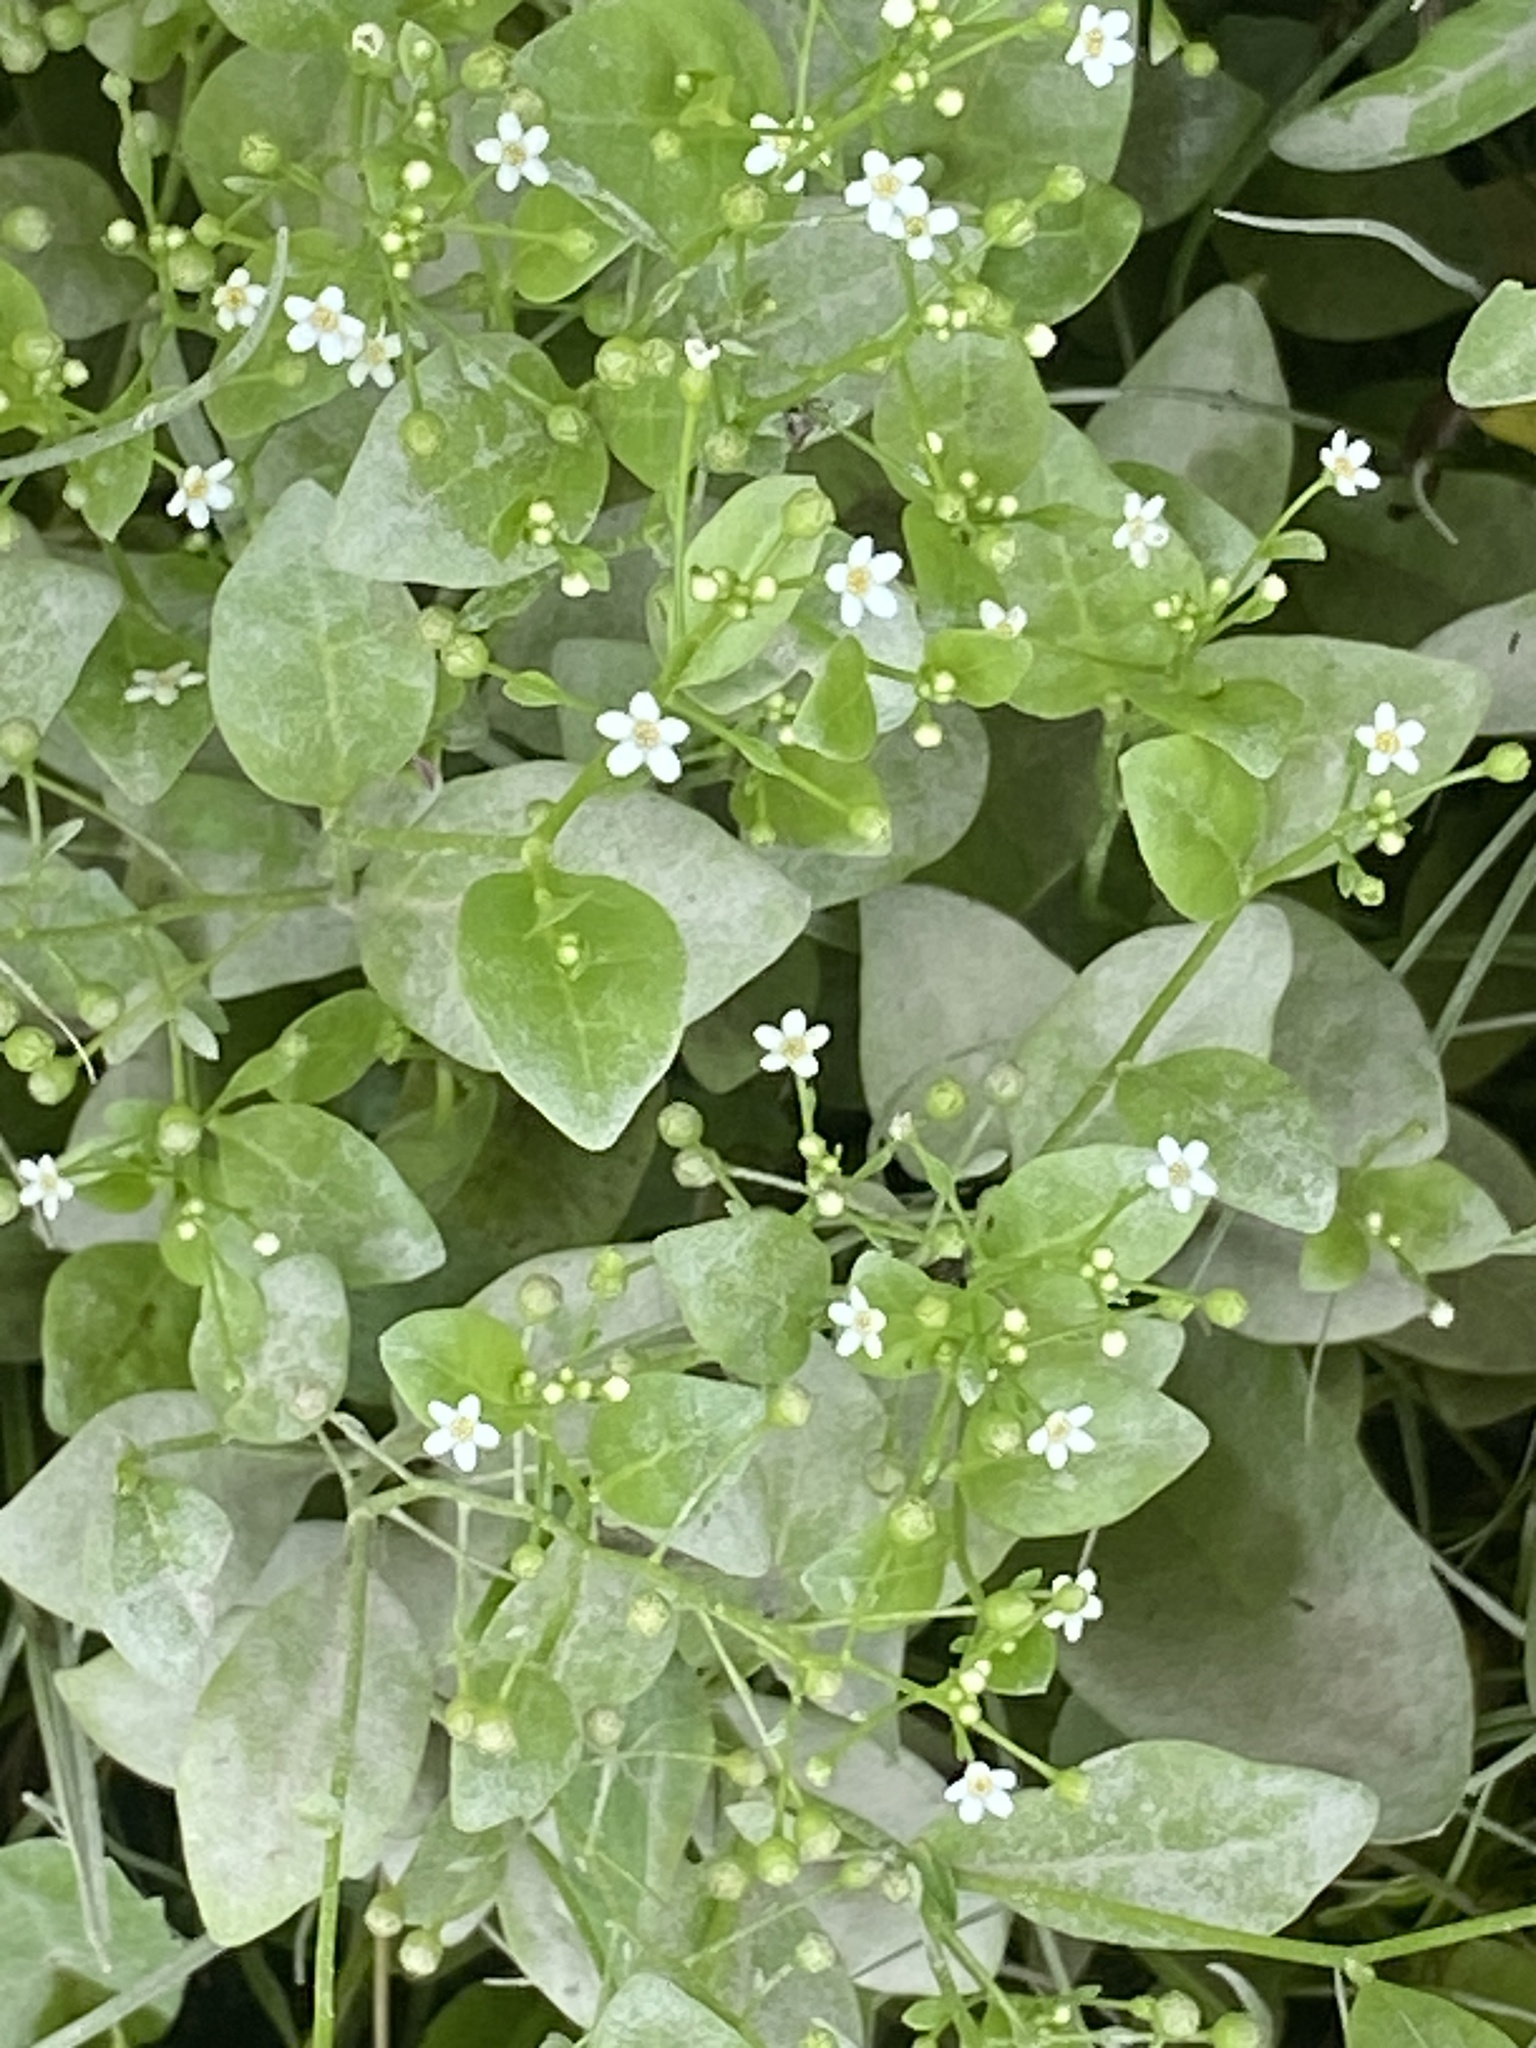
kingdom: Plantae
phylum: Tracheophyta
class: Magnoliopsida
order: Ericales
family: Primulaceae
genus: Samolus
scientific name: Samolus parviflorus
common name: False water pimpernel
